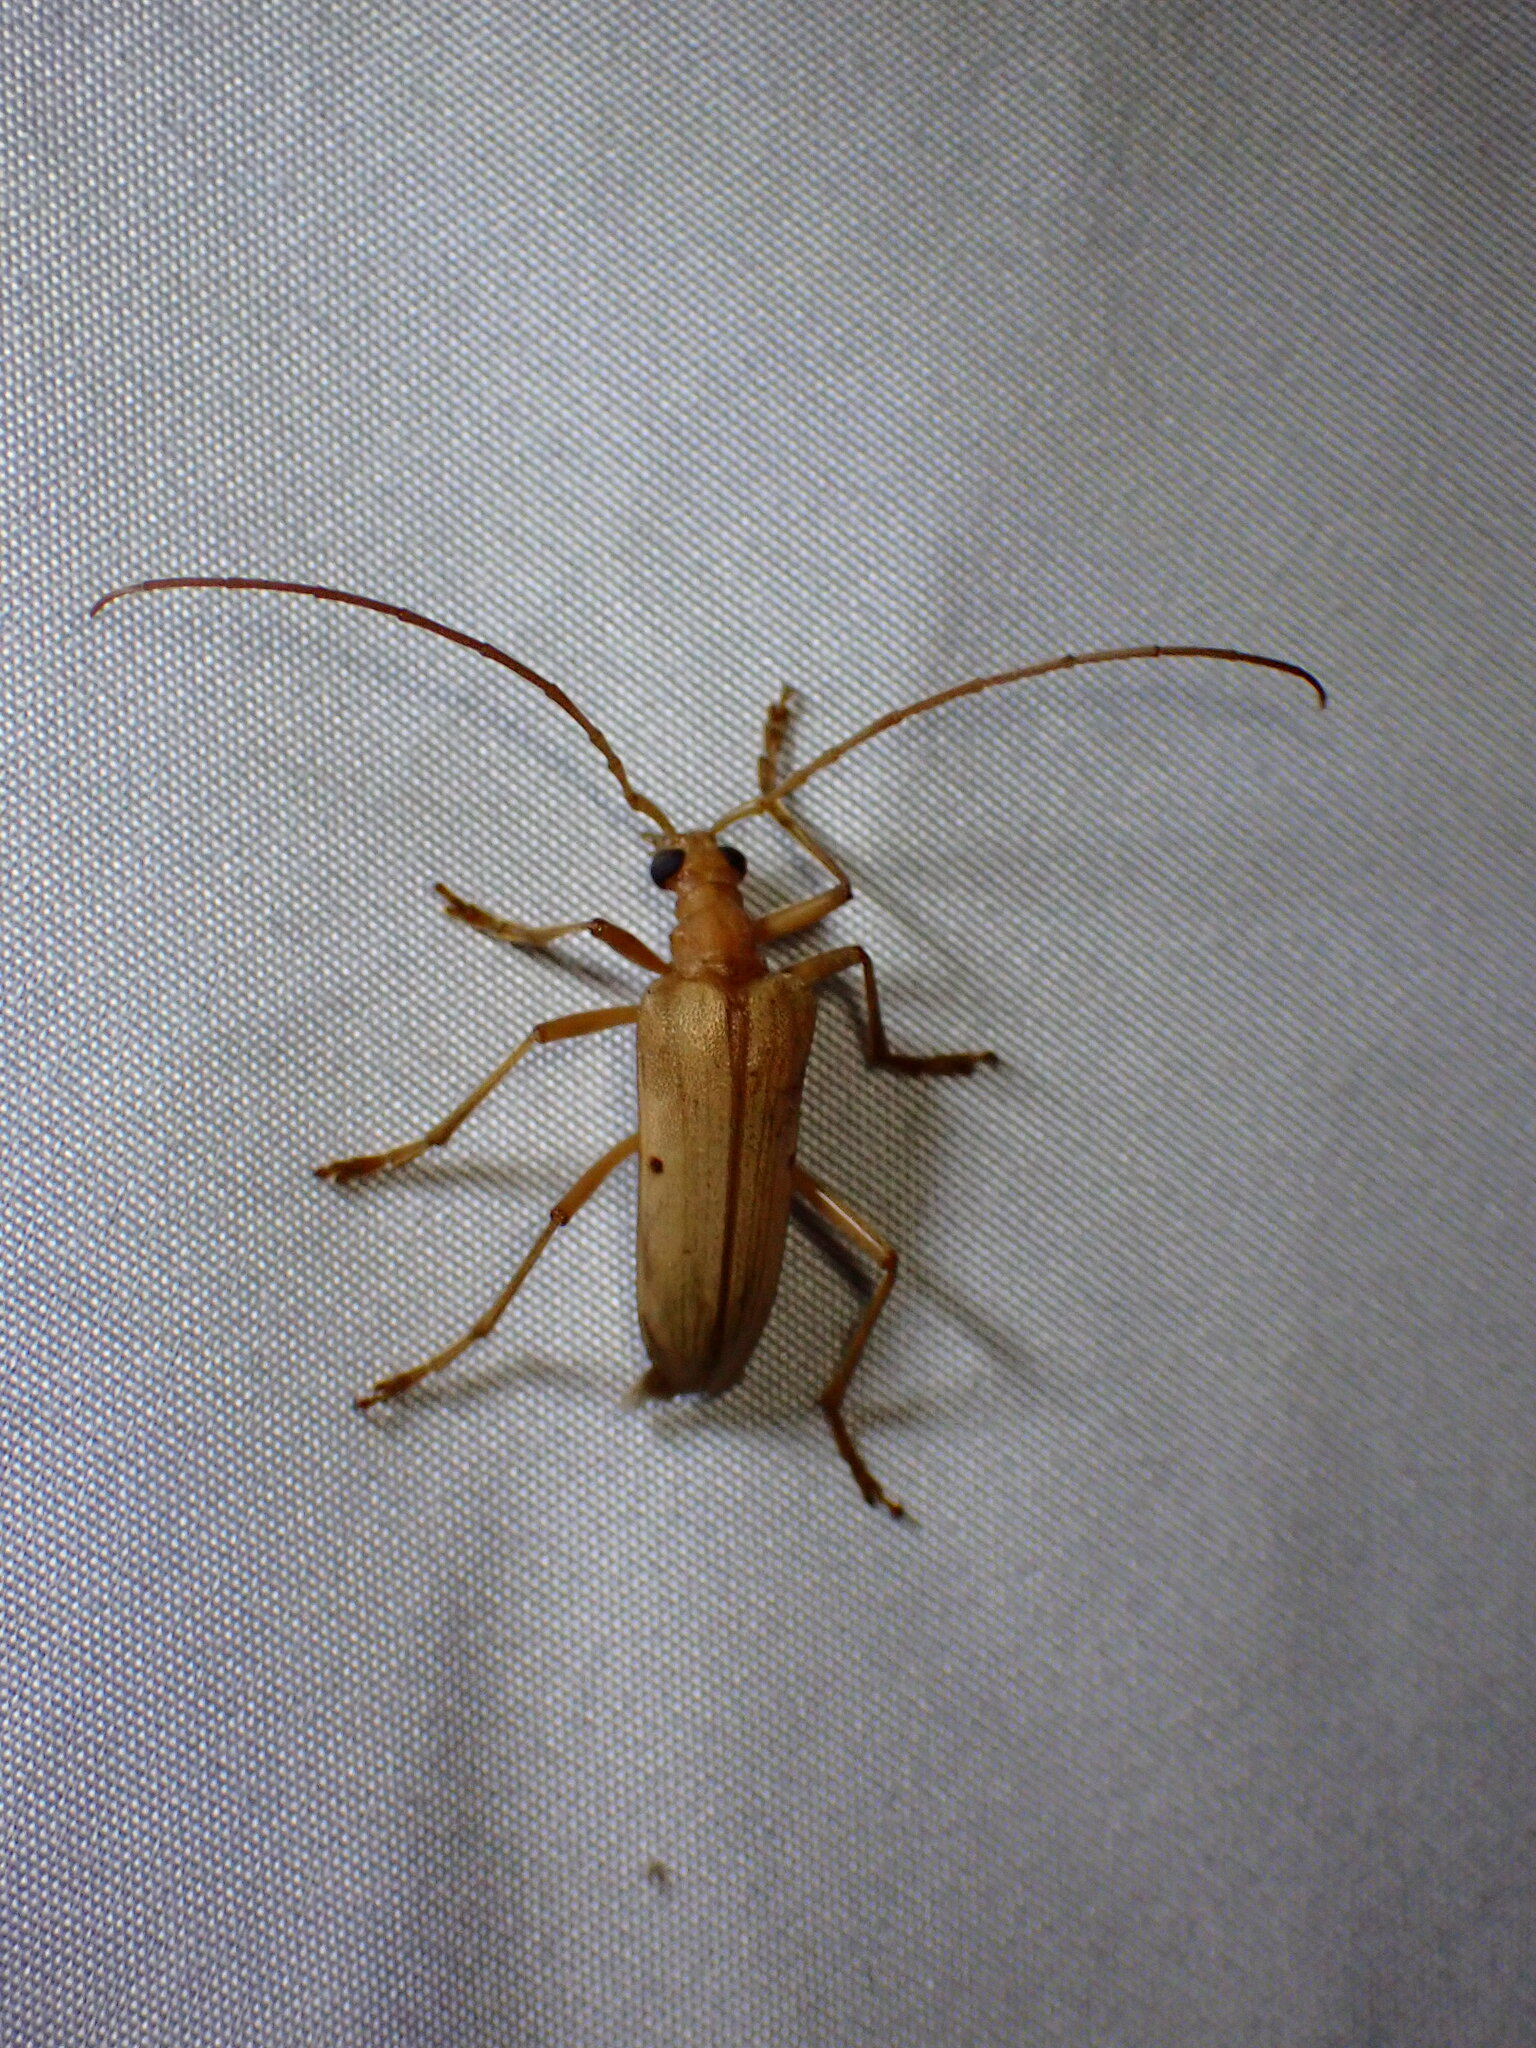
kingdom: Animalia
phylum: Arthropoda
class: Insecta
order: Coleoptera
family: Cerambycidae
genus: Centrodera
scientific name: Centrodera spurca
